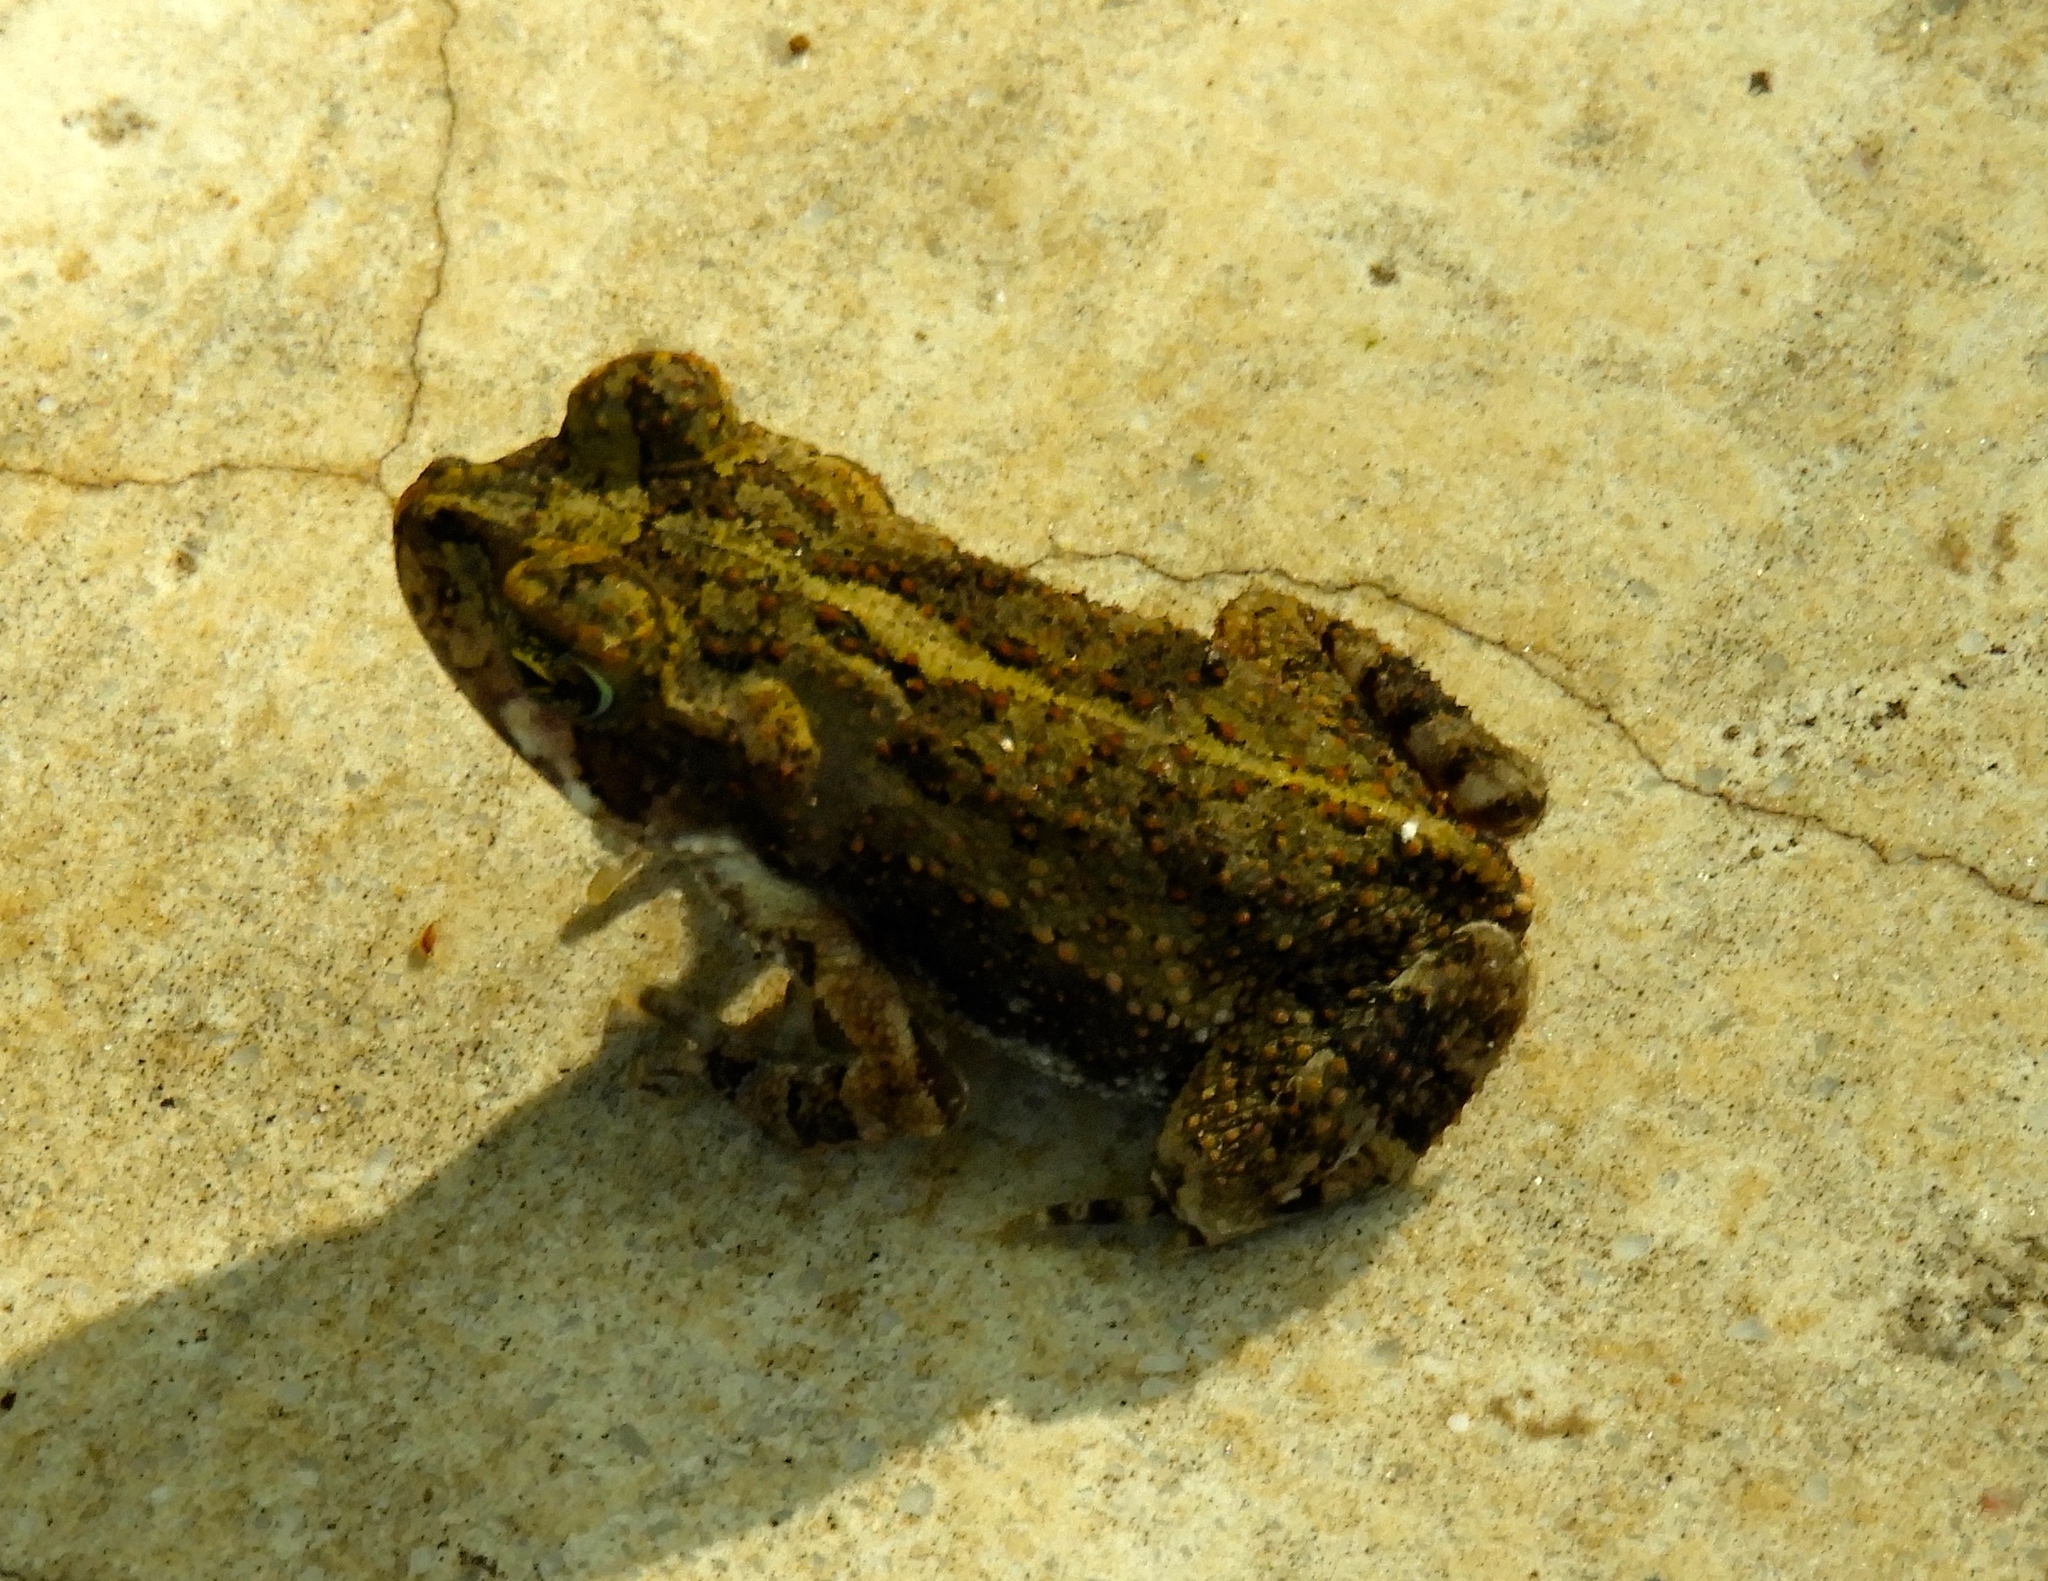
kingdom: Animalia
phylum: Chordata
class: Amphibia
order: Anura
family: Bufonidae
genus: Incilius
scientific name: Incilius marmoreus
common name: Marbled toad
